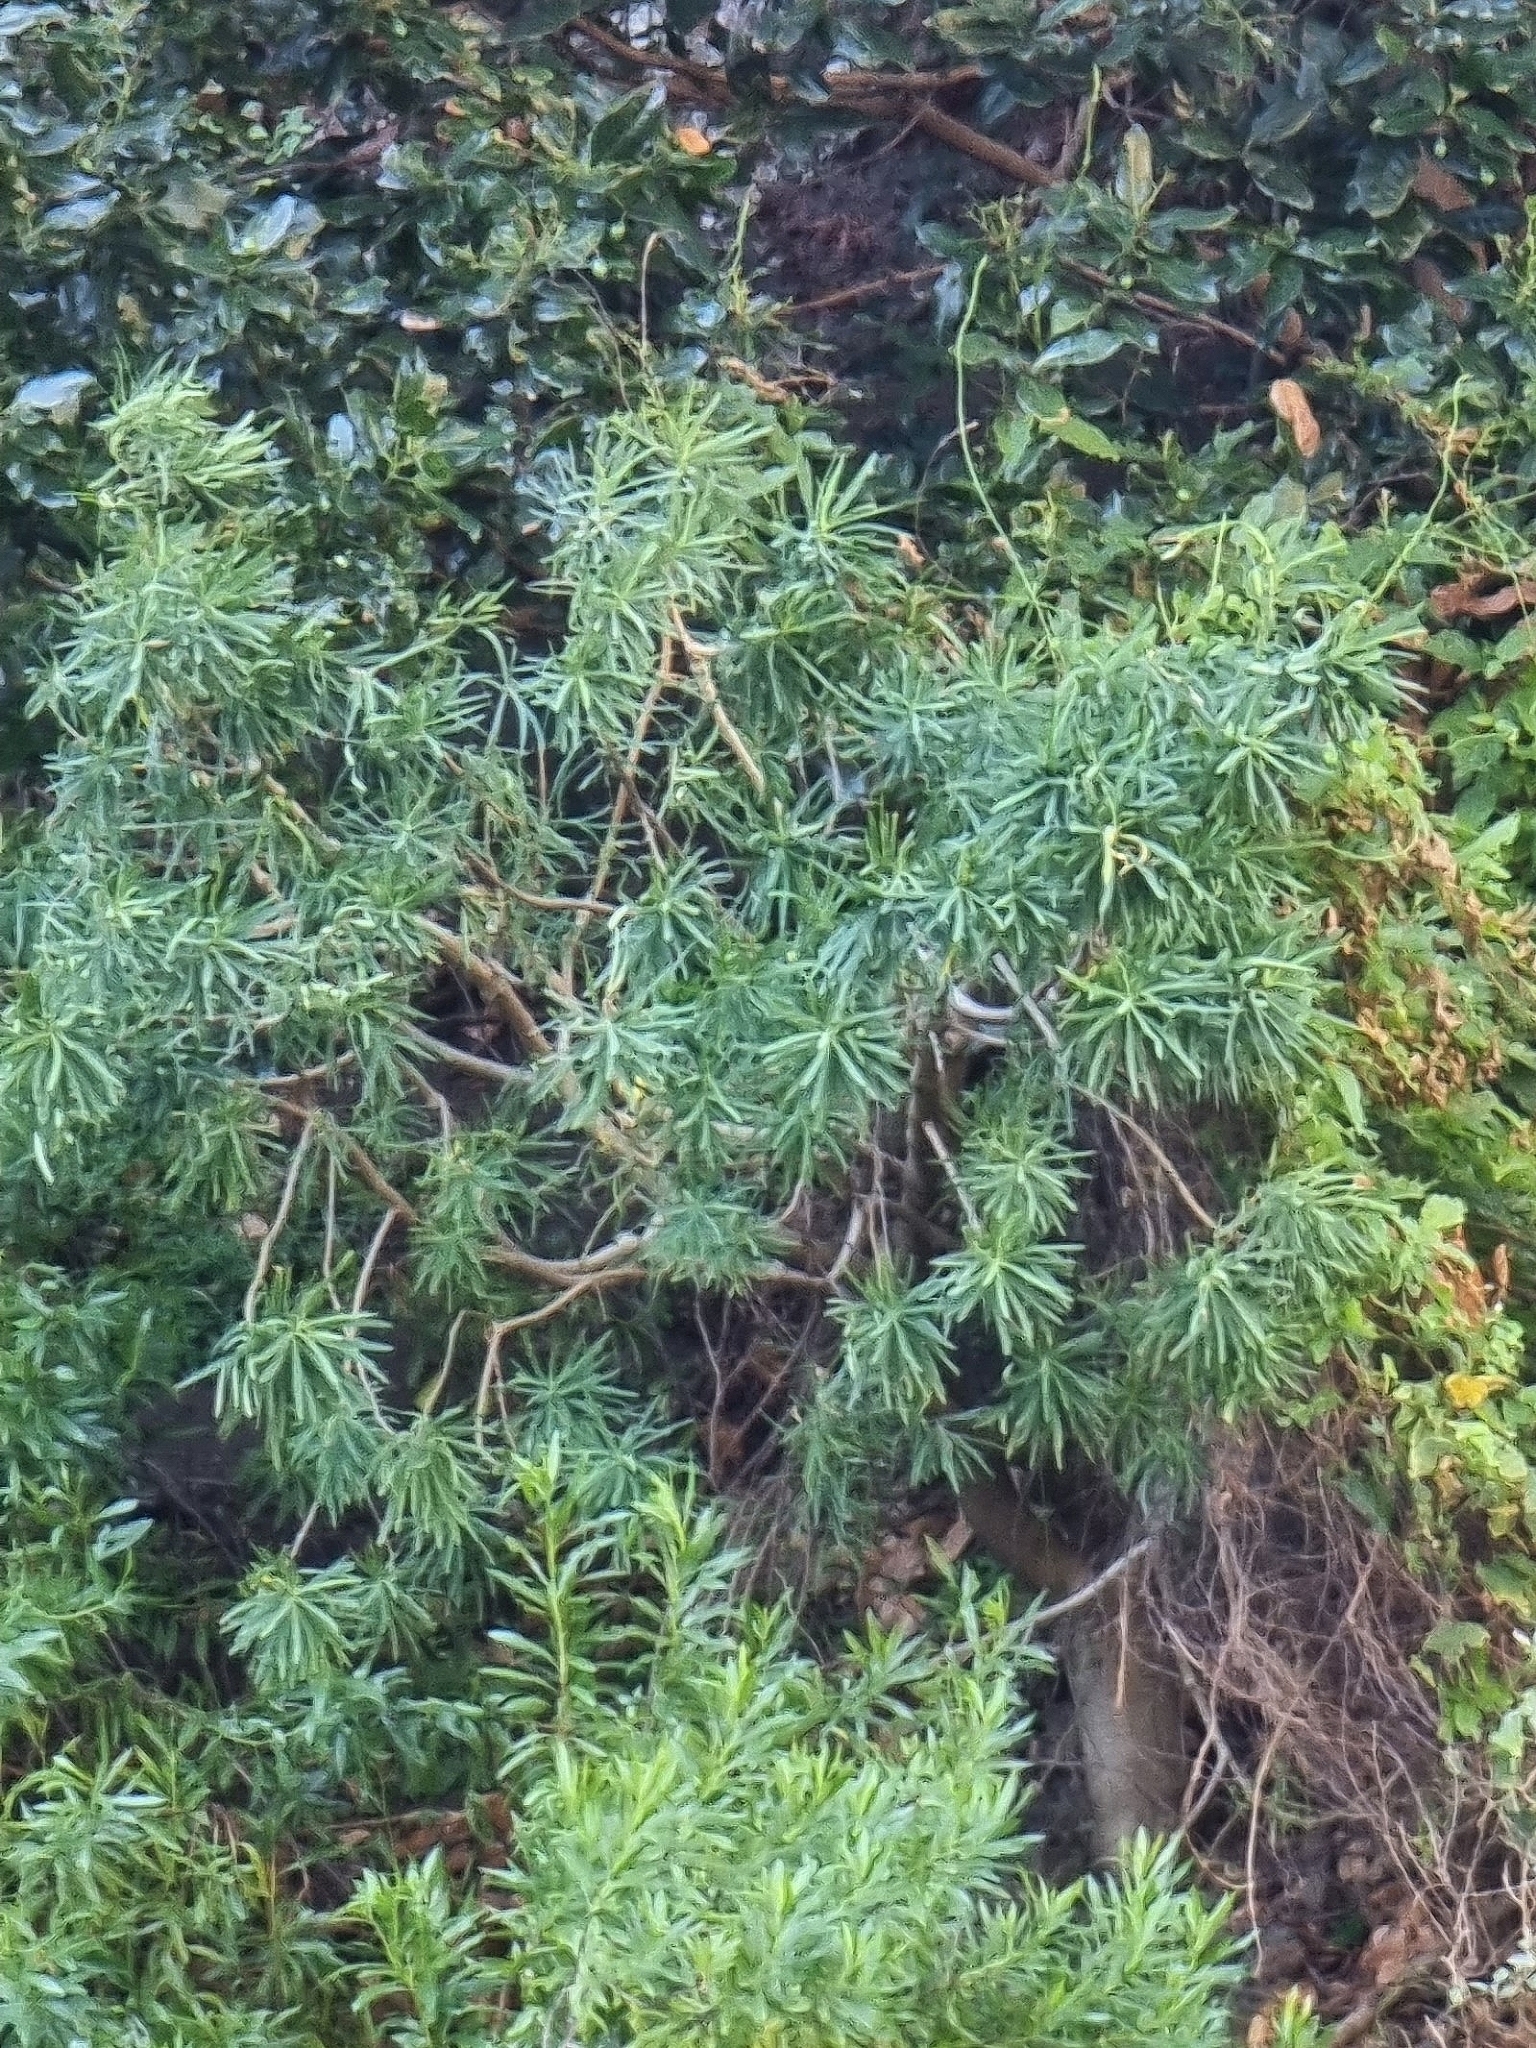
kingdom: Plantae
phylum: Tracheophyta
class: Magnoliopsida
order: Malpighiales
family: Euphorbiaceae
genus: Euphorbia
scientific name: Euphorbia piscatoria
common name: Fish-stunning spurge
